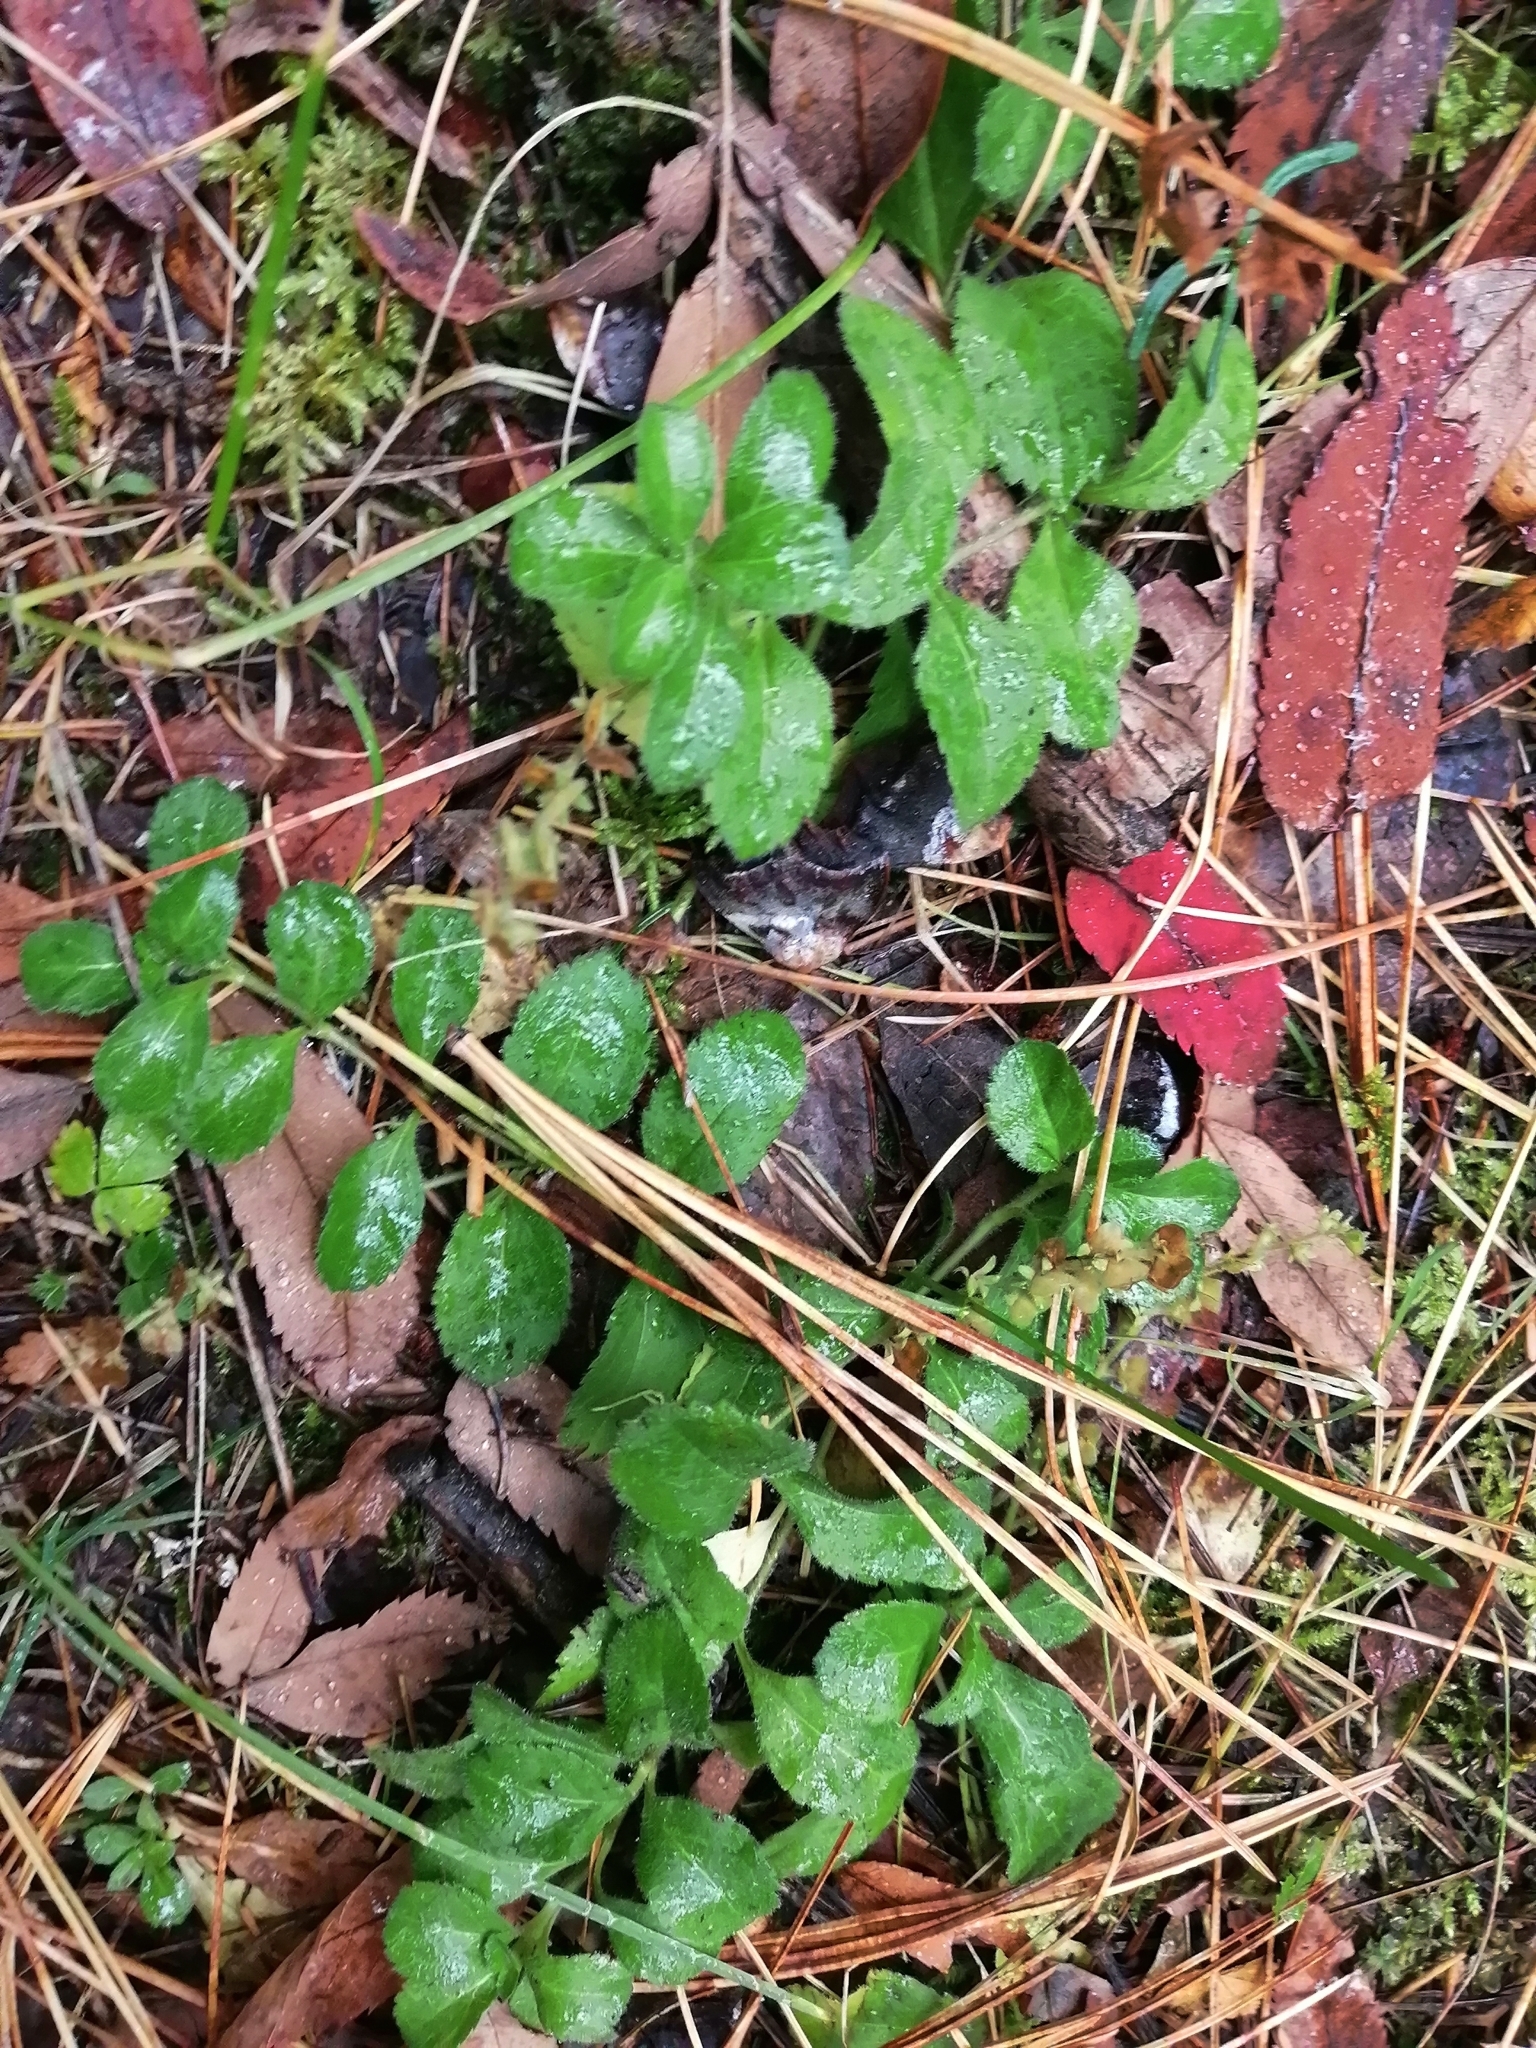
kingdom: Plantae
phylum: Tracheophyta
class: Magnoliopsida
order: Lamiales
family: Plantaginaceae
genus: Veronica
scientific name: Veronica officinalis
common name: Common speedwell
